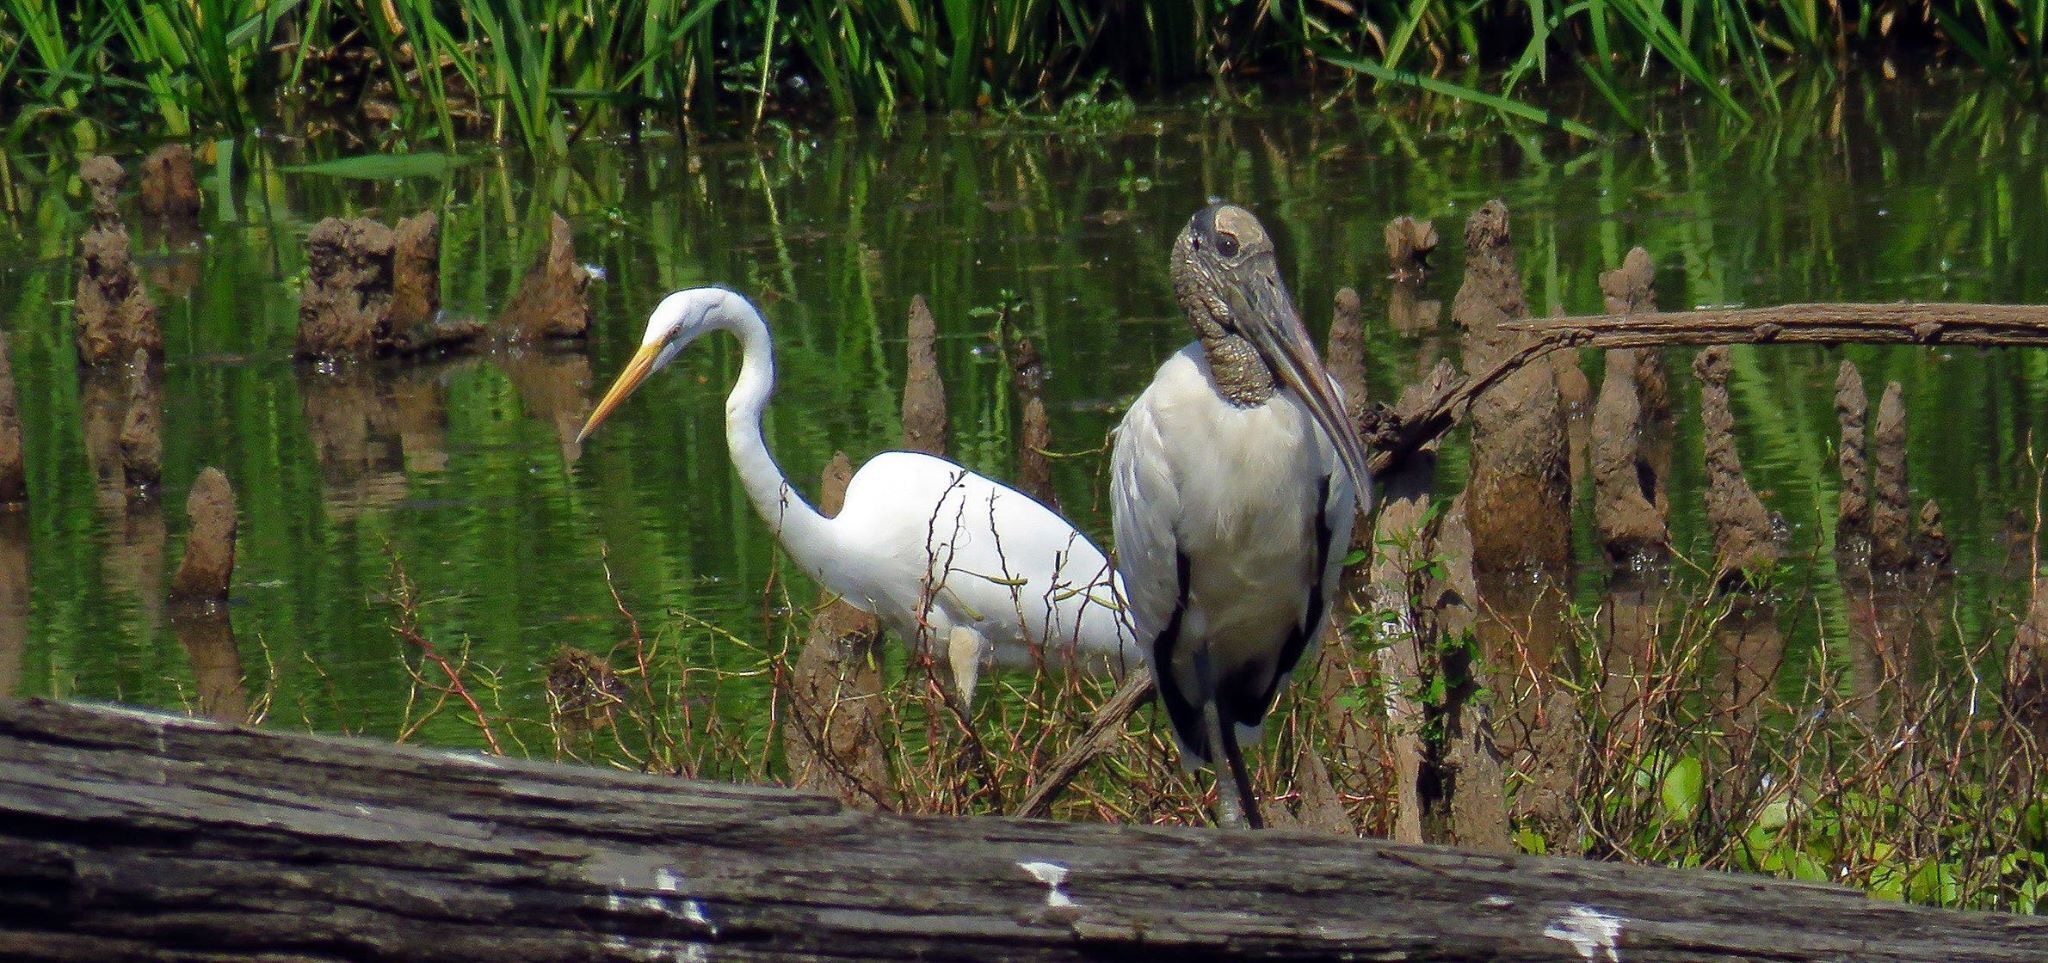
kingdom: Animalia
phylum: Chordata
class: Aves
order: Ciconiiformes
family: Ciconiidae
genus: Mycteria
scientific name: Mycteria americana
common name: Wood stork
